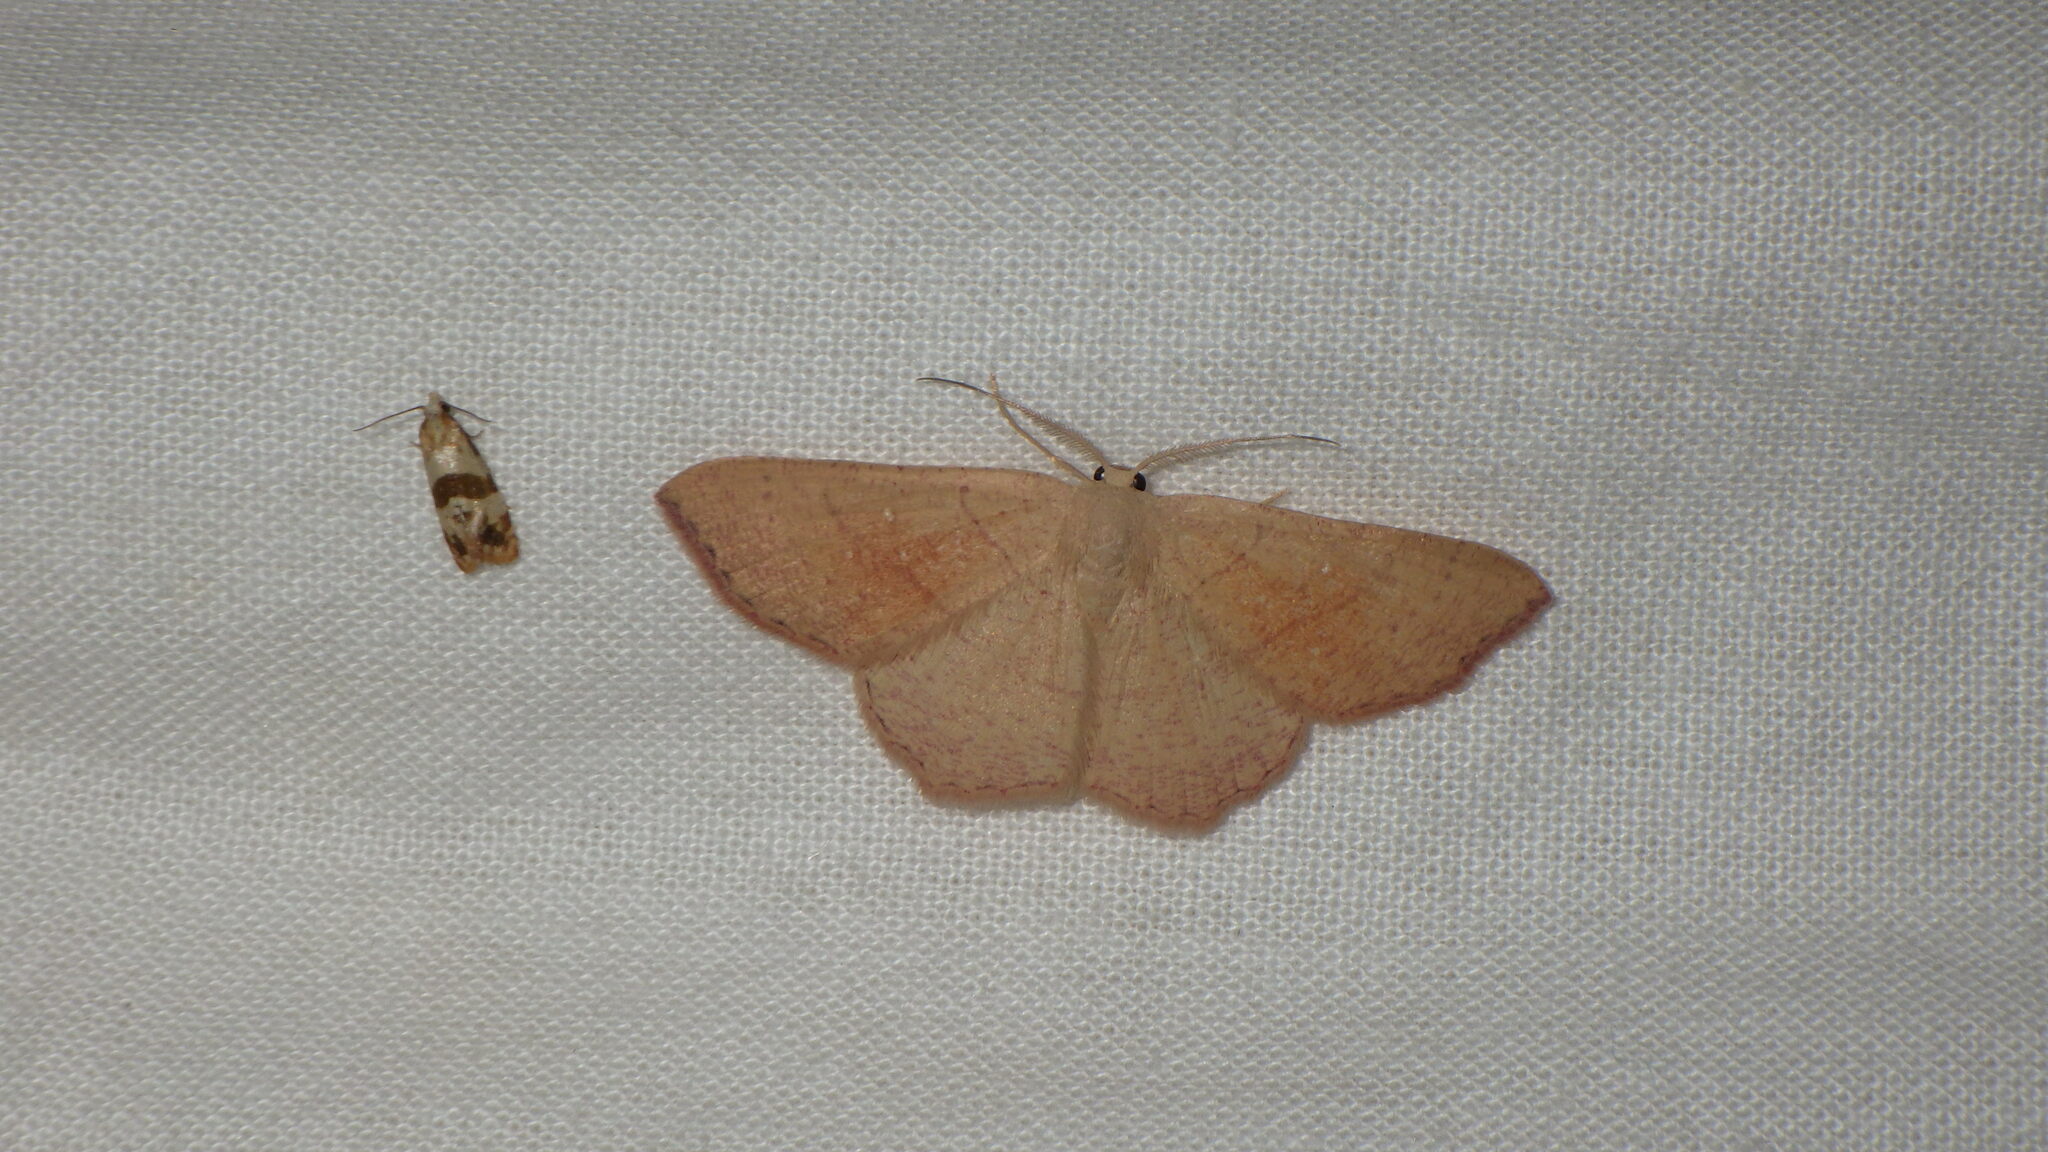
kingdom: Animalia
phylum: Arthropoda
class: Insecta
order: Lepidoptera
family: Geometridae
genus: Cyclophora
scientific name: Cyclophora suppunctaria
